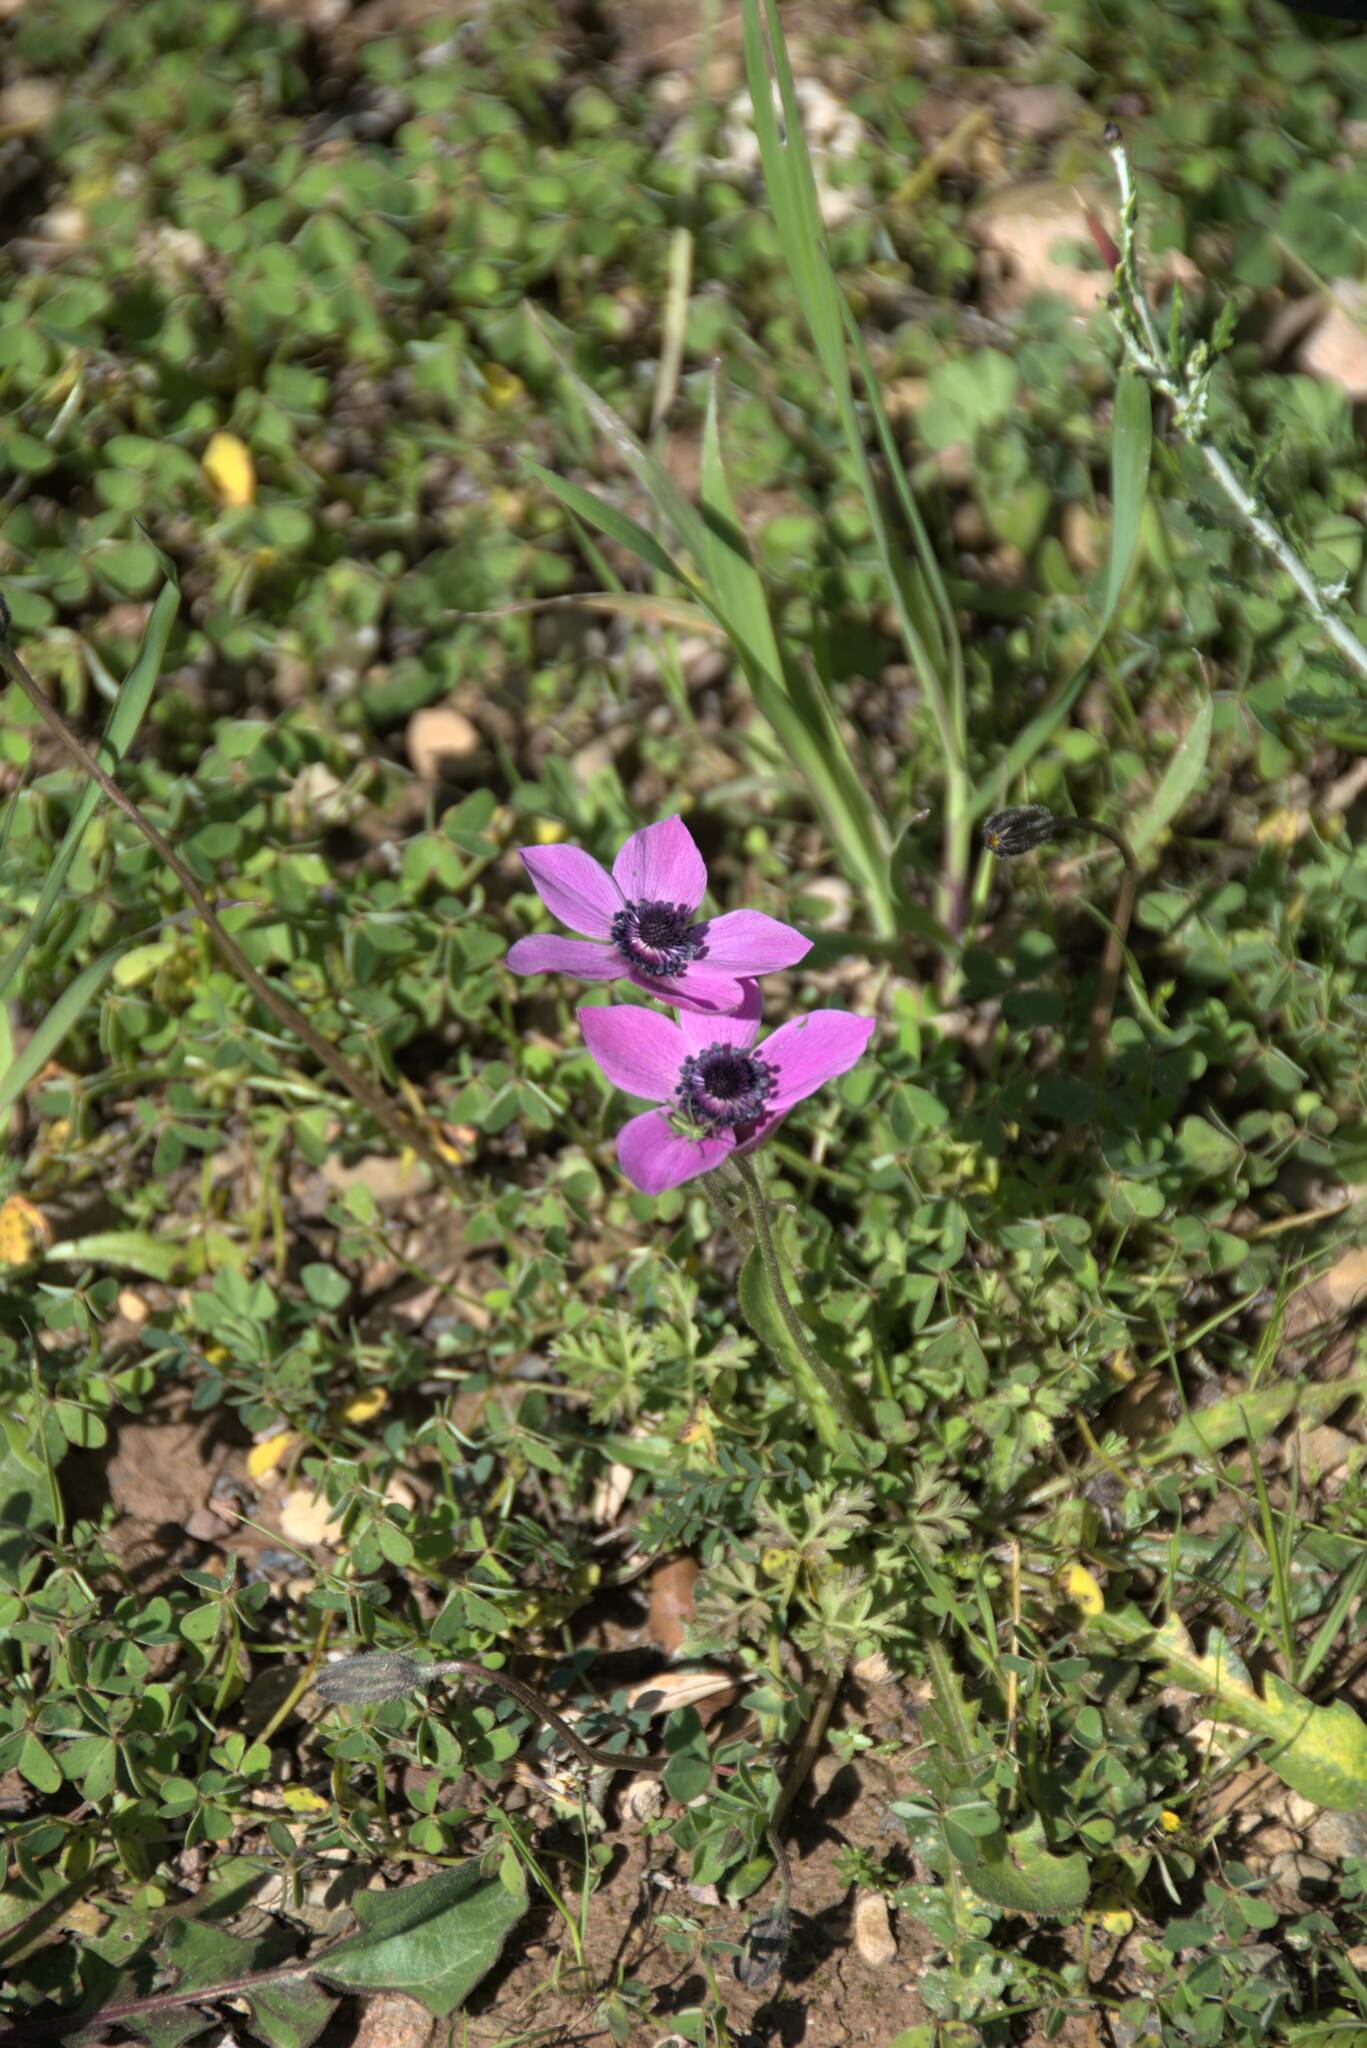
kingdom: Plantae
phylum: Tracheophyta
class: Magnoliopsida
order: Ranunculales
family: Ranunculaceae
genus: Anemone
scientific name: Anemone coronaria
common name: Poppy anemone
